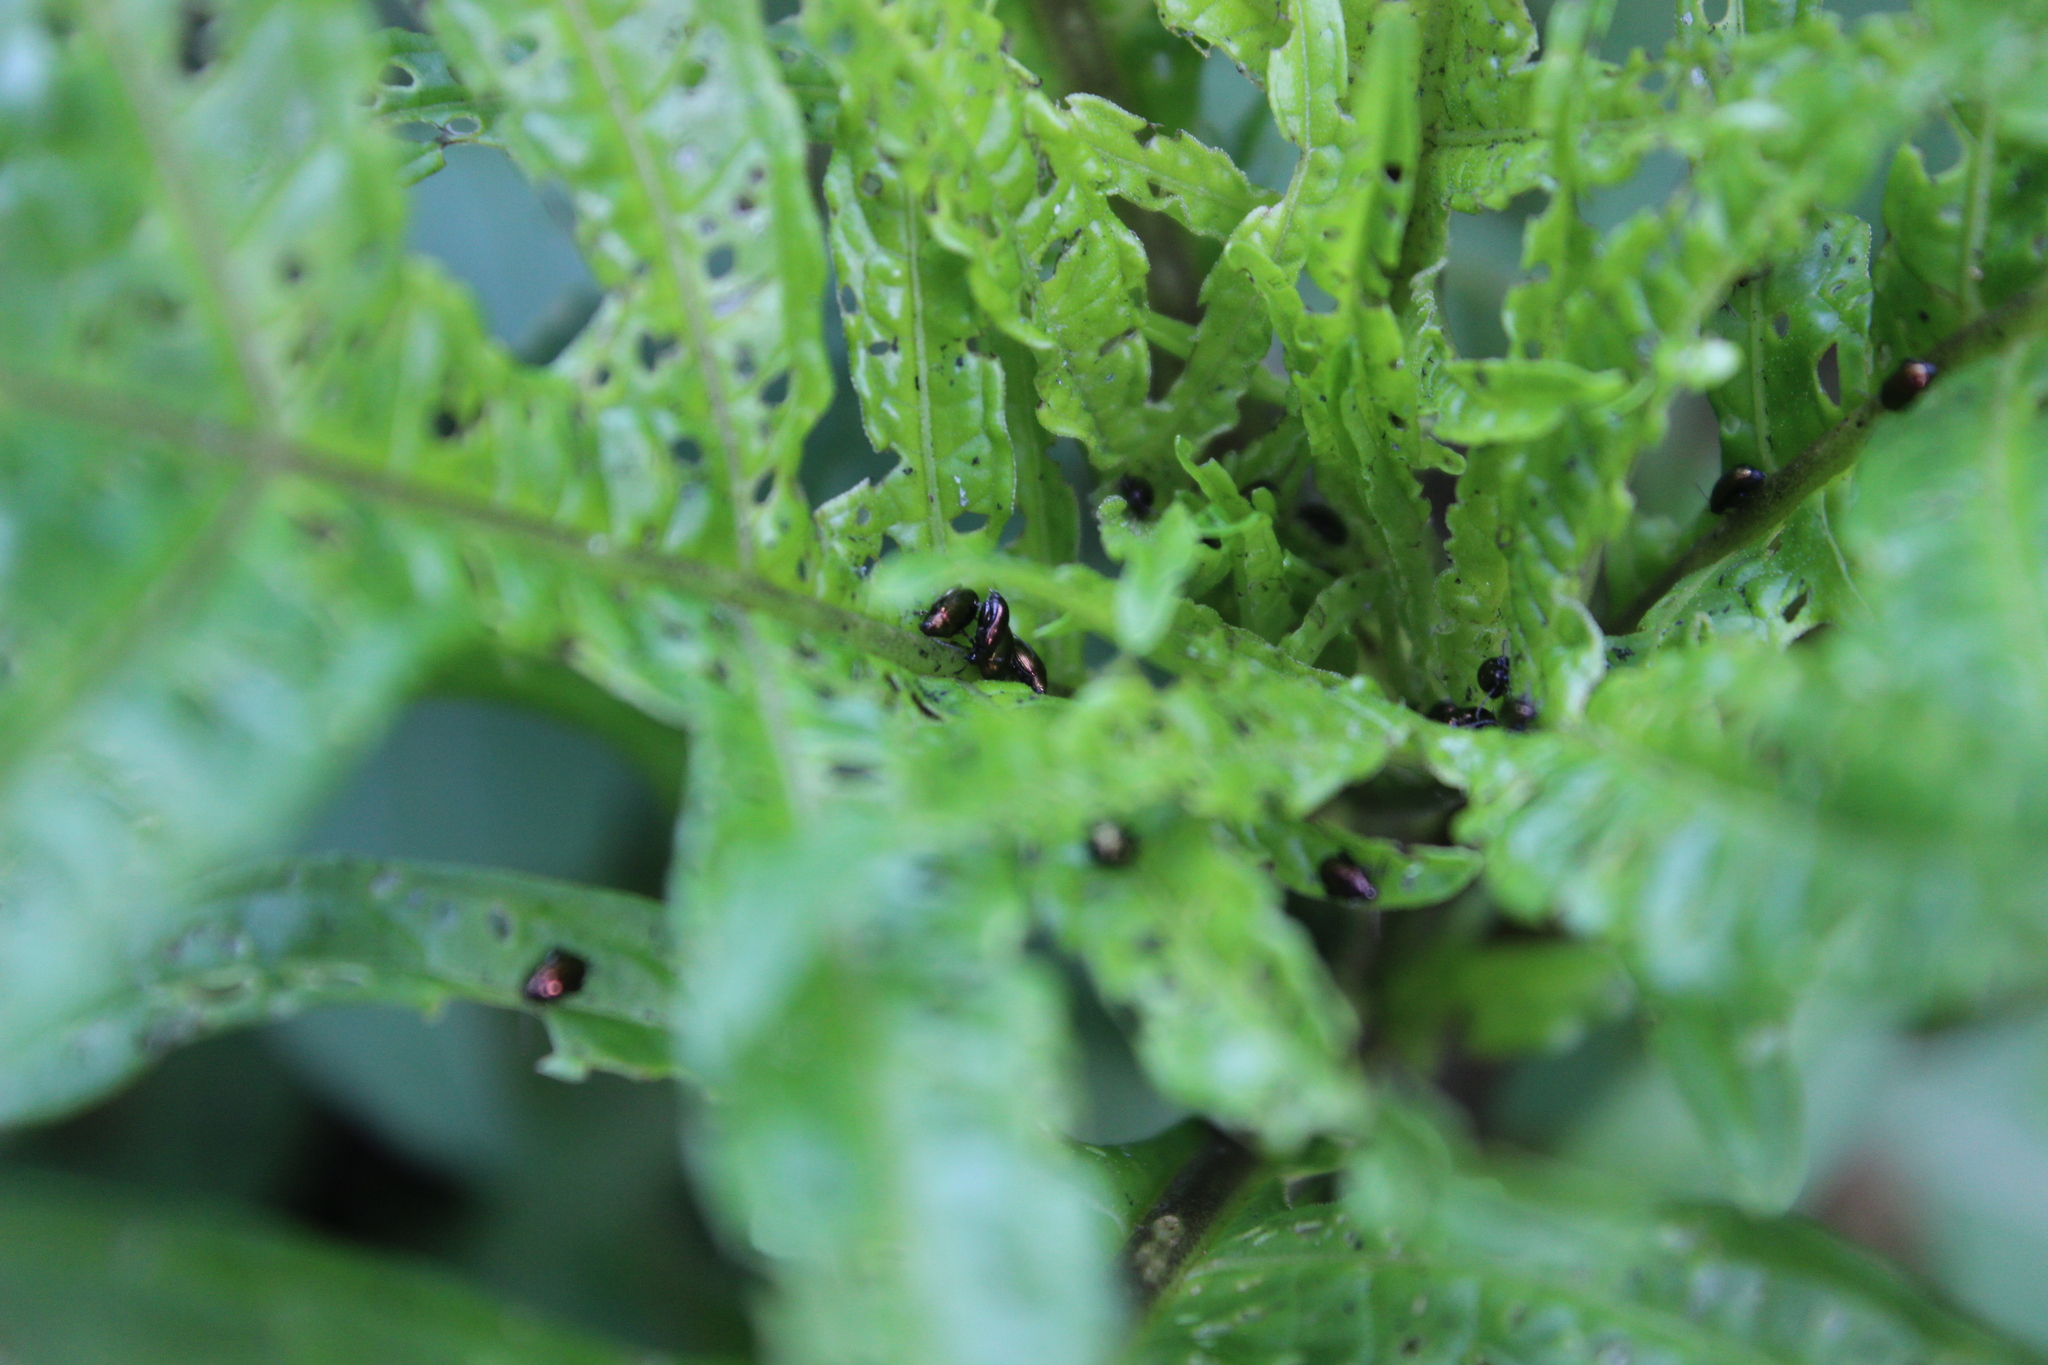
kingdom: Animalia
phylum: Arthropoda
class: Insecta
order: Coleoptera
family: Chrysomelidae
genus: Psylliodes
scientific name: Psylliodes brettinghami
